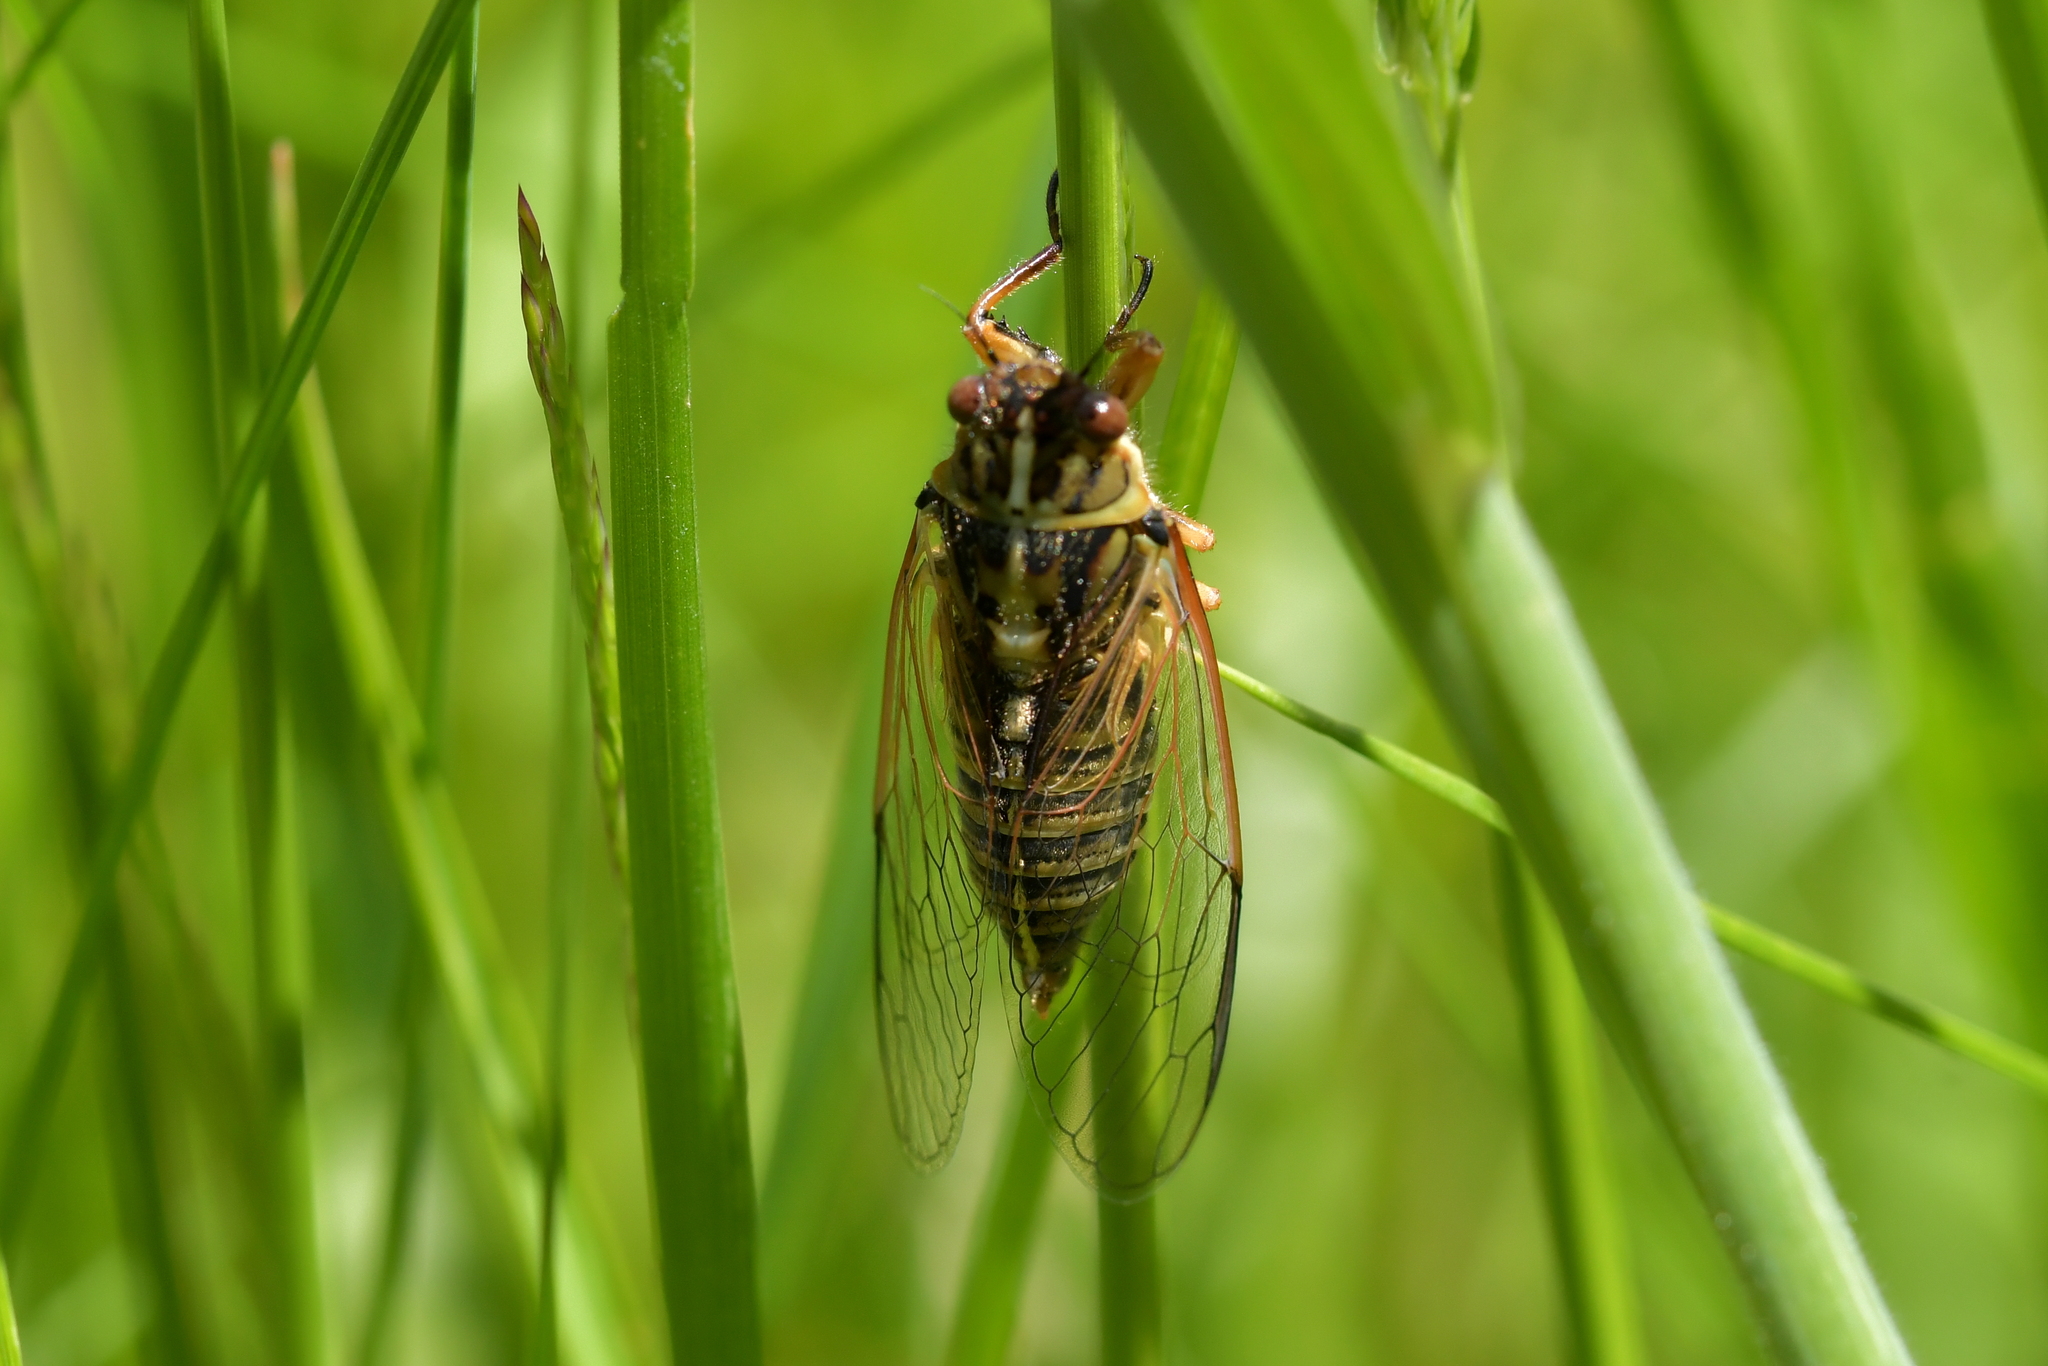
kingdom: Animalia
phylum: Arthropoda
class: Insecta
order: Hemiptera
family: Cicadidae
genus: Kikihia
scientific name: Kikihia muta
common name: Variable cicada
